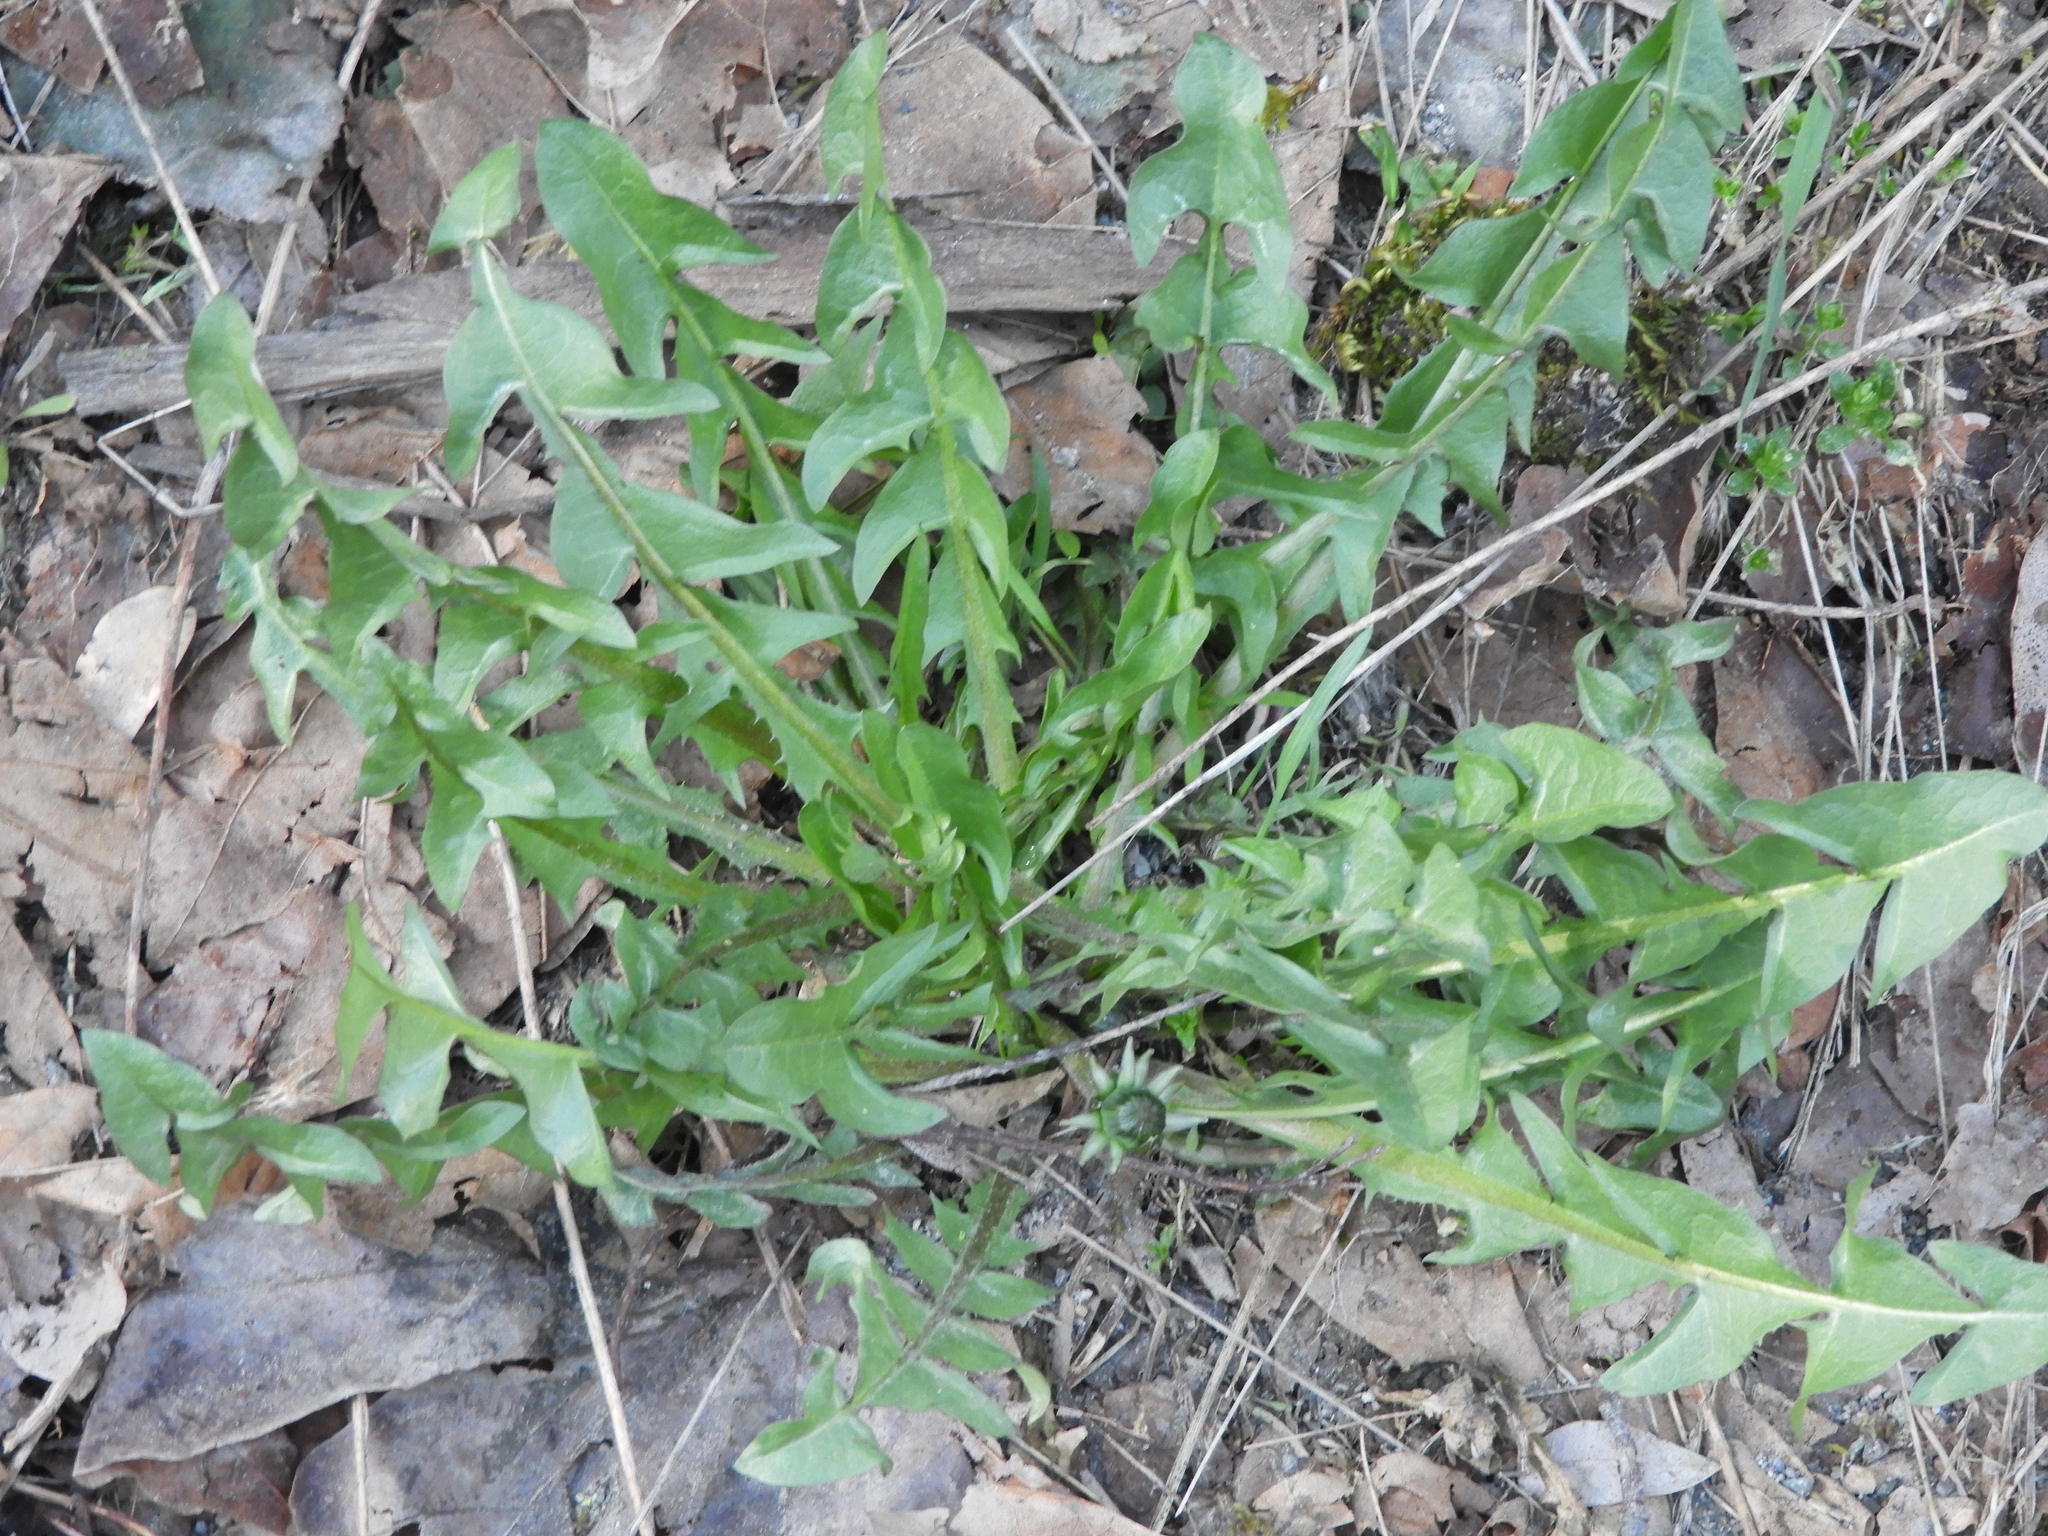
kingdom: Plantae
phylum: Tracheophyta
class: Magnoliopsida
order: Asterales
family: Asteraceae
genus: Taraxacum
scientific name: Taraxacum officinale
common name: Common dandelion
